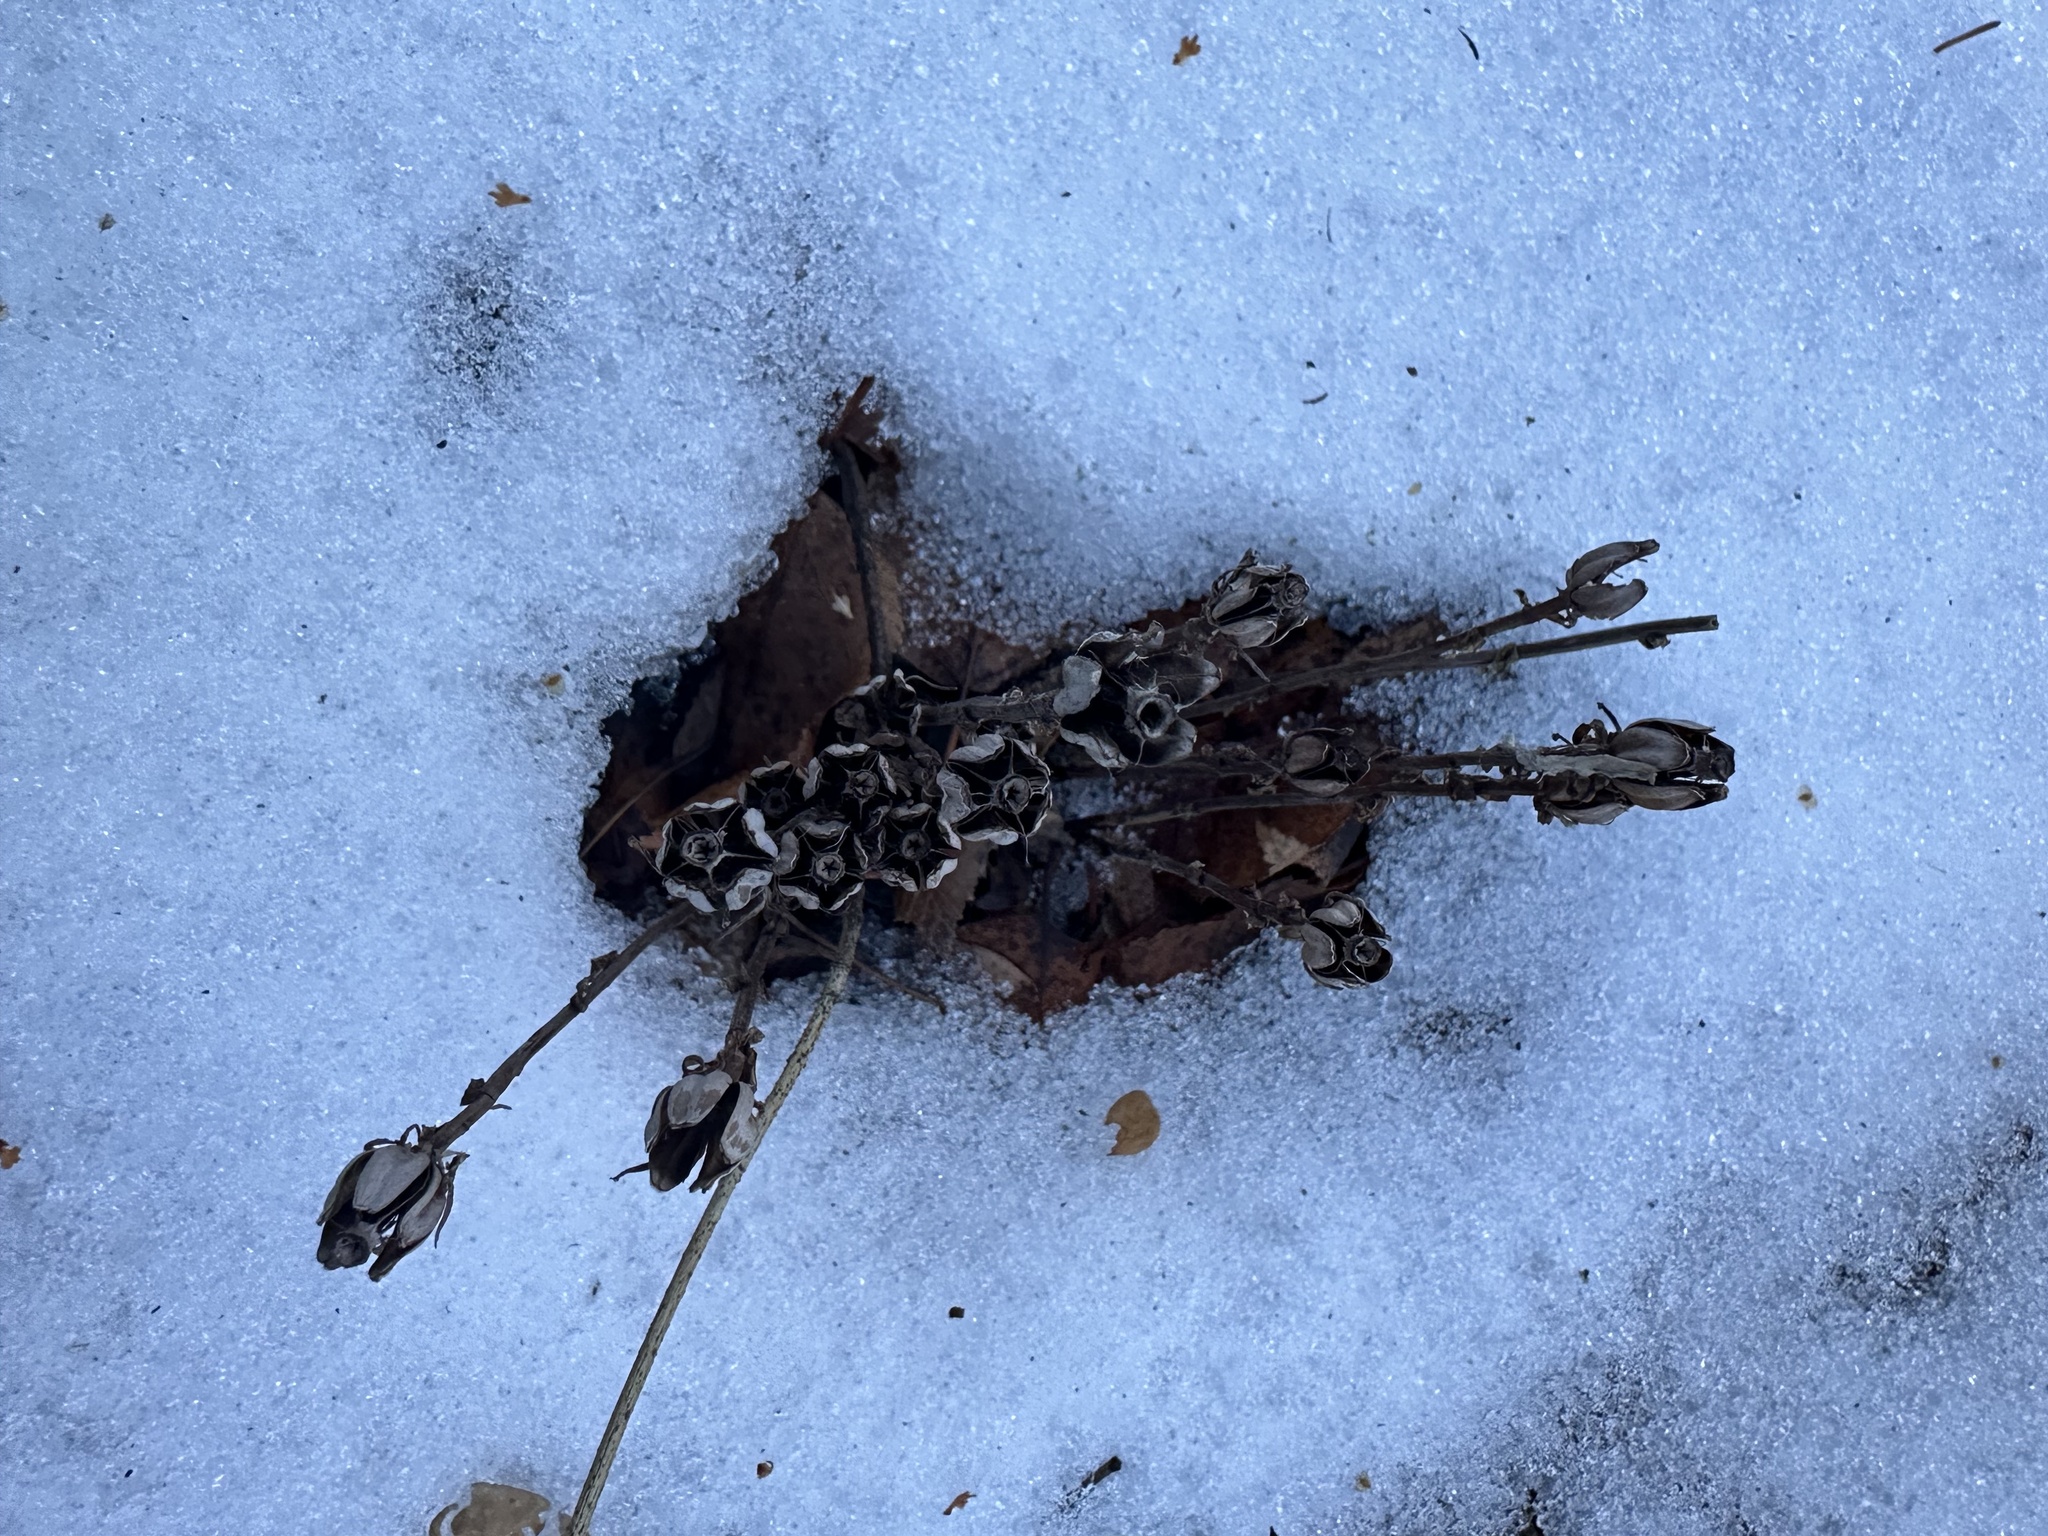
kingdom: Plantae
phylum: Tracheophyta
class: Magnoliopsida
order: Ericales
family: Ericaceae
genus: Monotropa
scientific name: Monotropa uniflora
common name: Convulsion root
